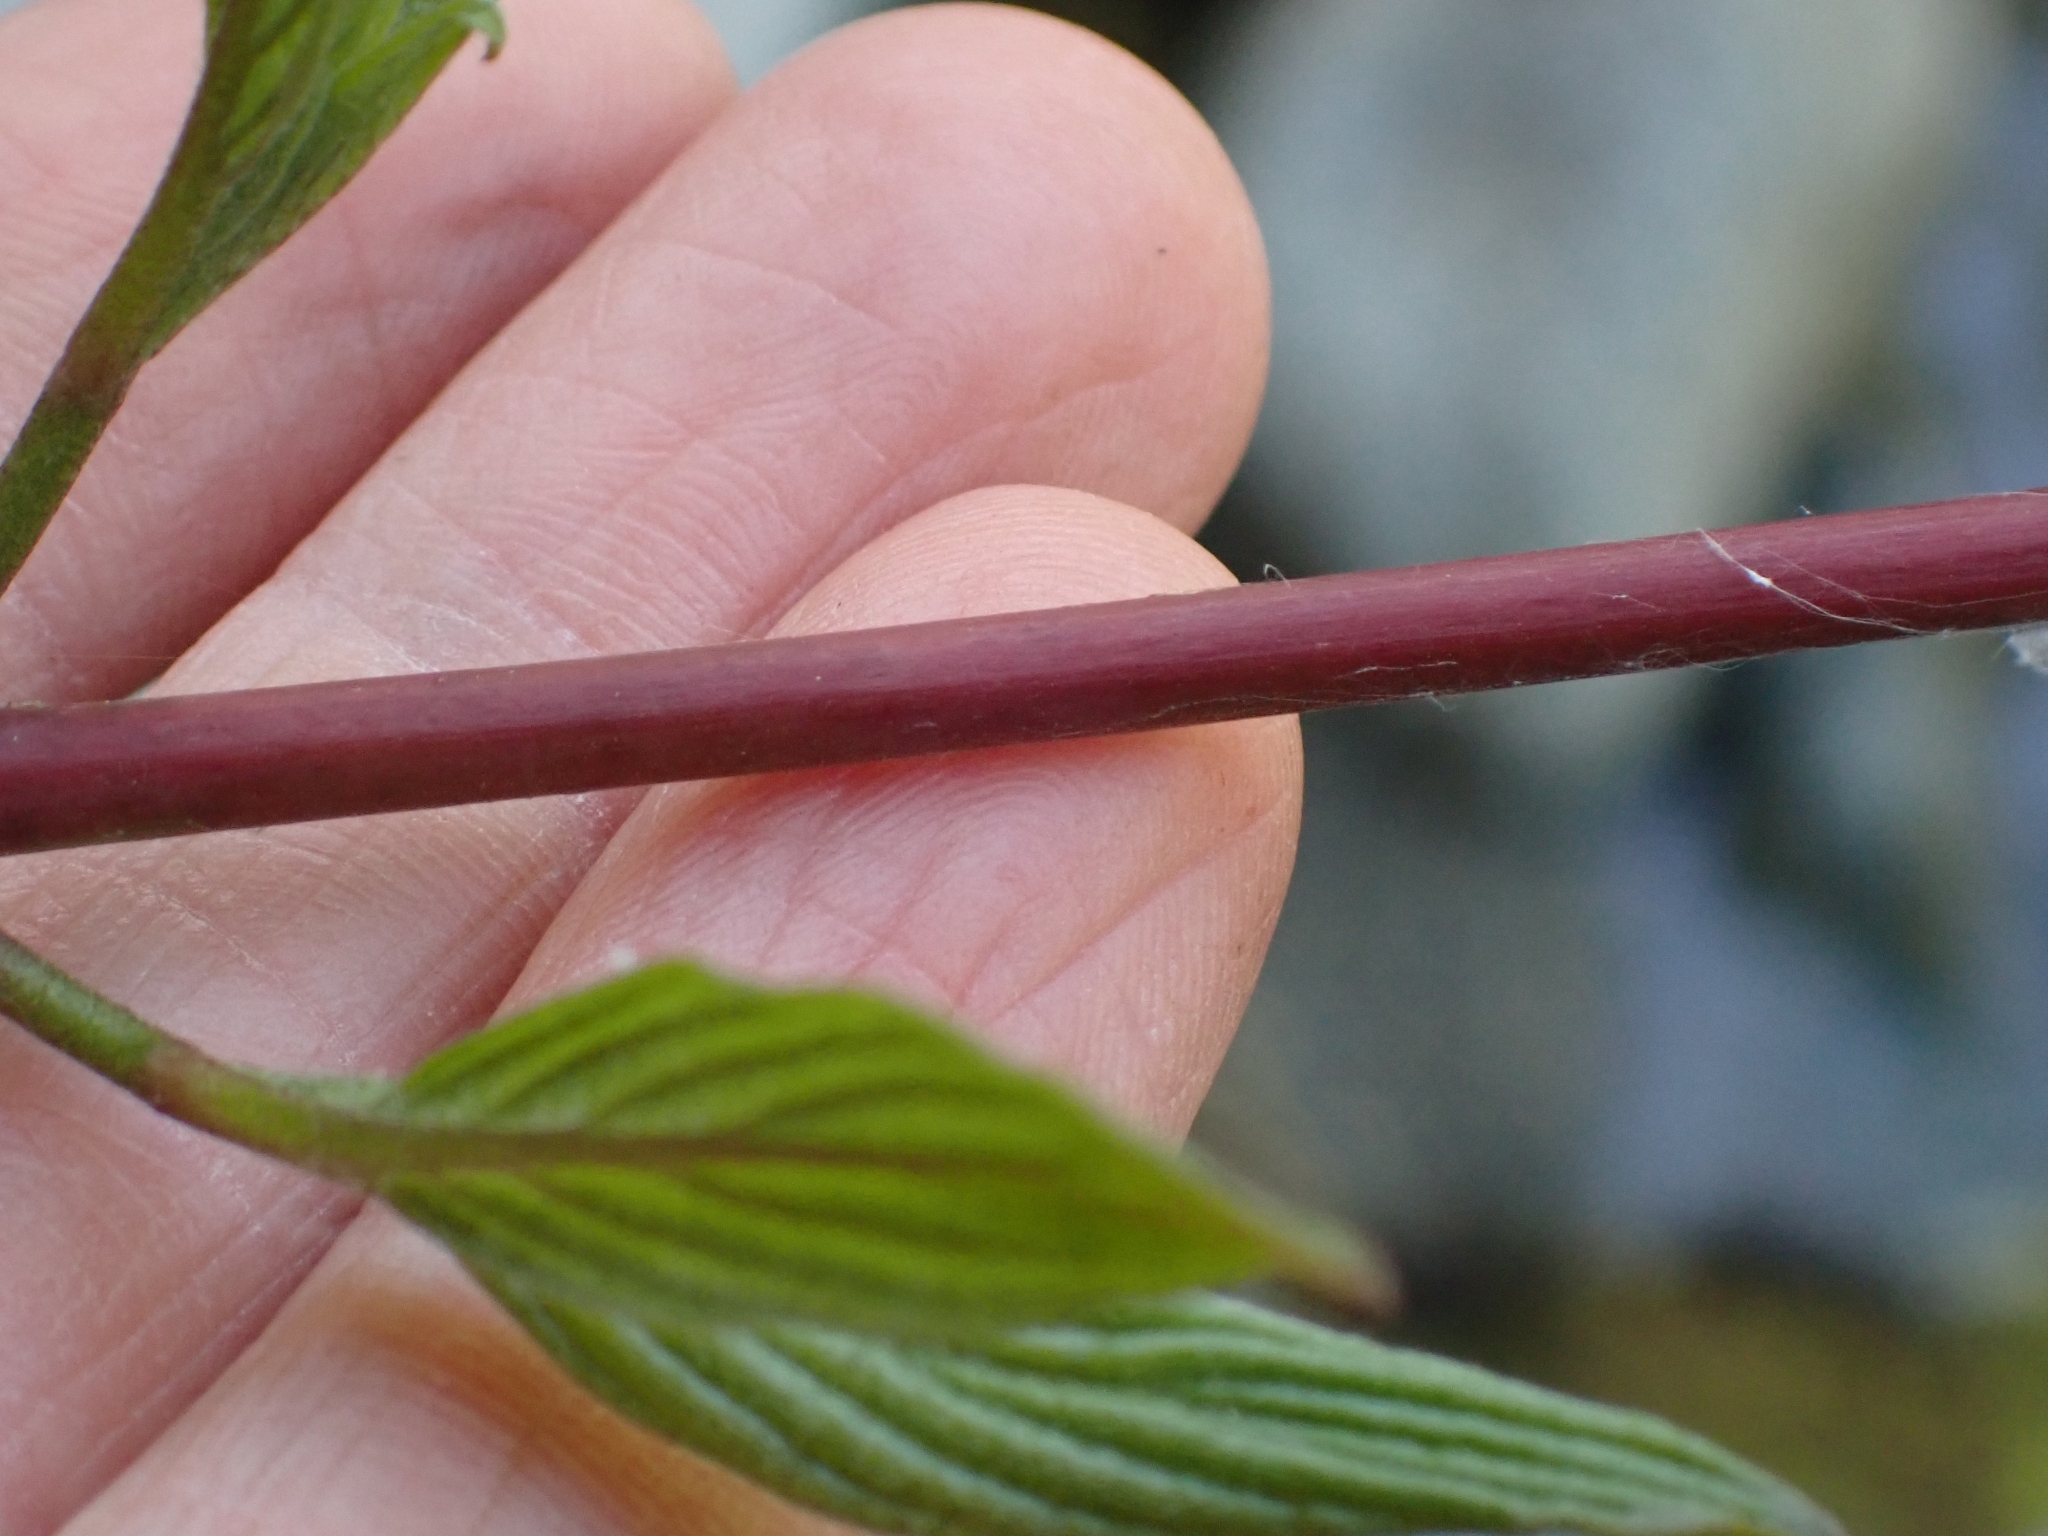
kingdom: Plantae
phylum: Tracheophyta
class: Magnoliopsida
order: Cornales
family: Cornaceae
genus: Cornus
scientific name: Cornus sericea
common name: Red-osier dogwood
